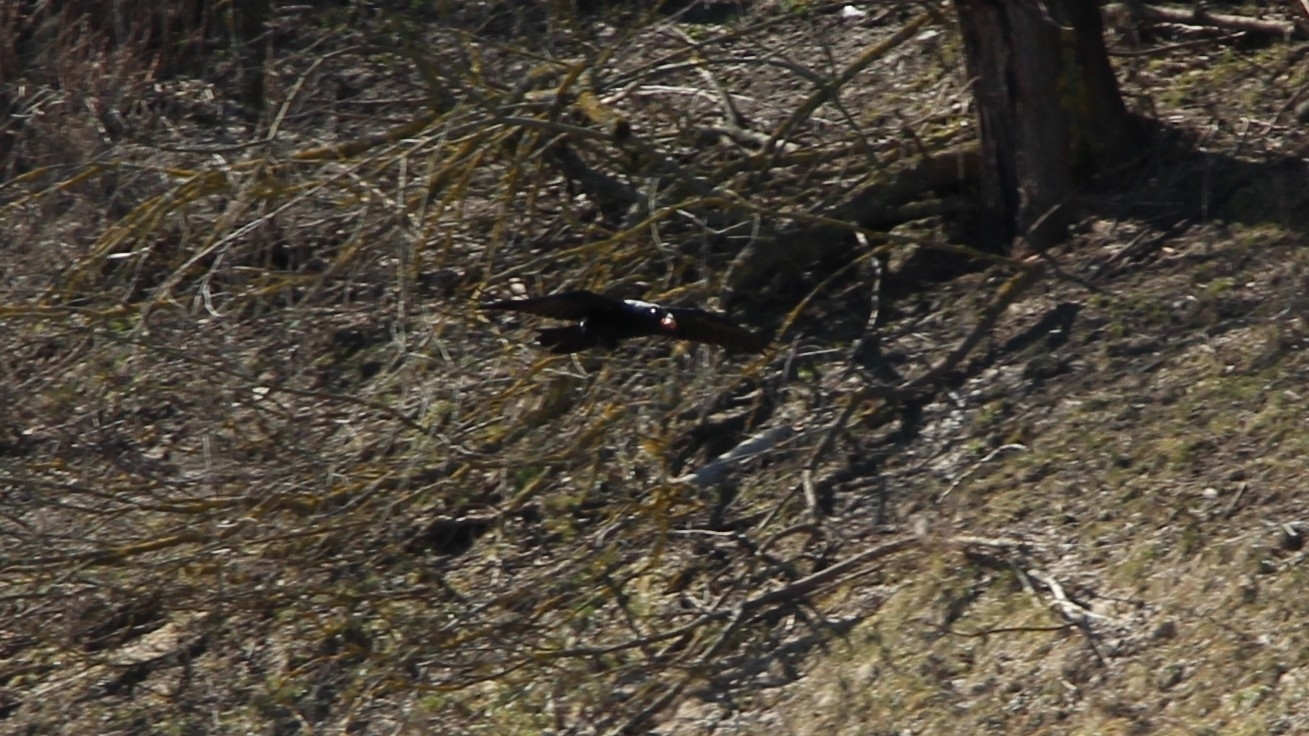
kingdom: Animalia
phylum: Chordata
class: Aves
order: Passeriformes
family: Corvidae
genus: Corvus
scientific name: Corvus corax
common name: Common raven
